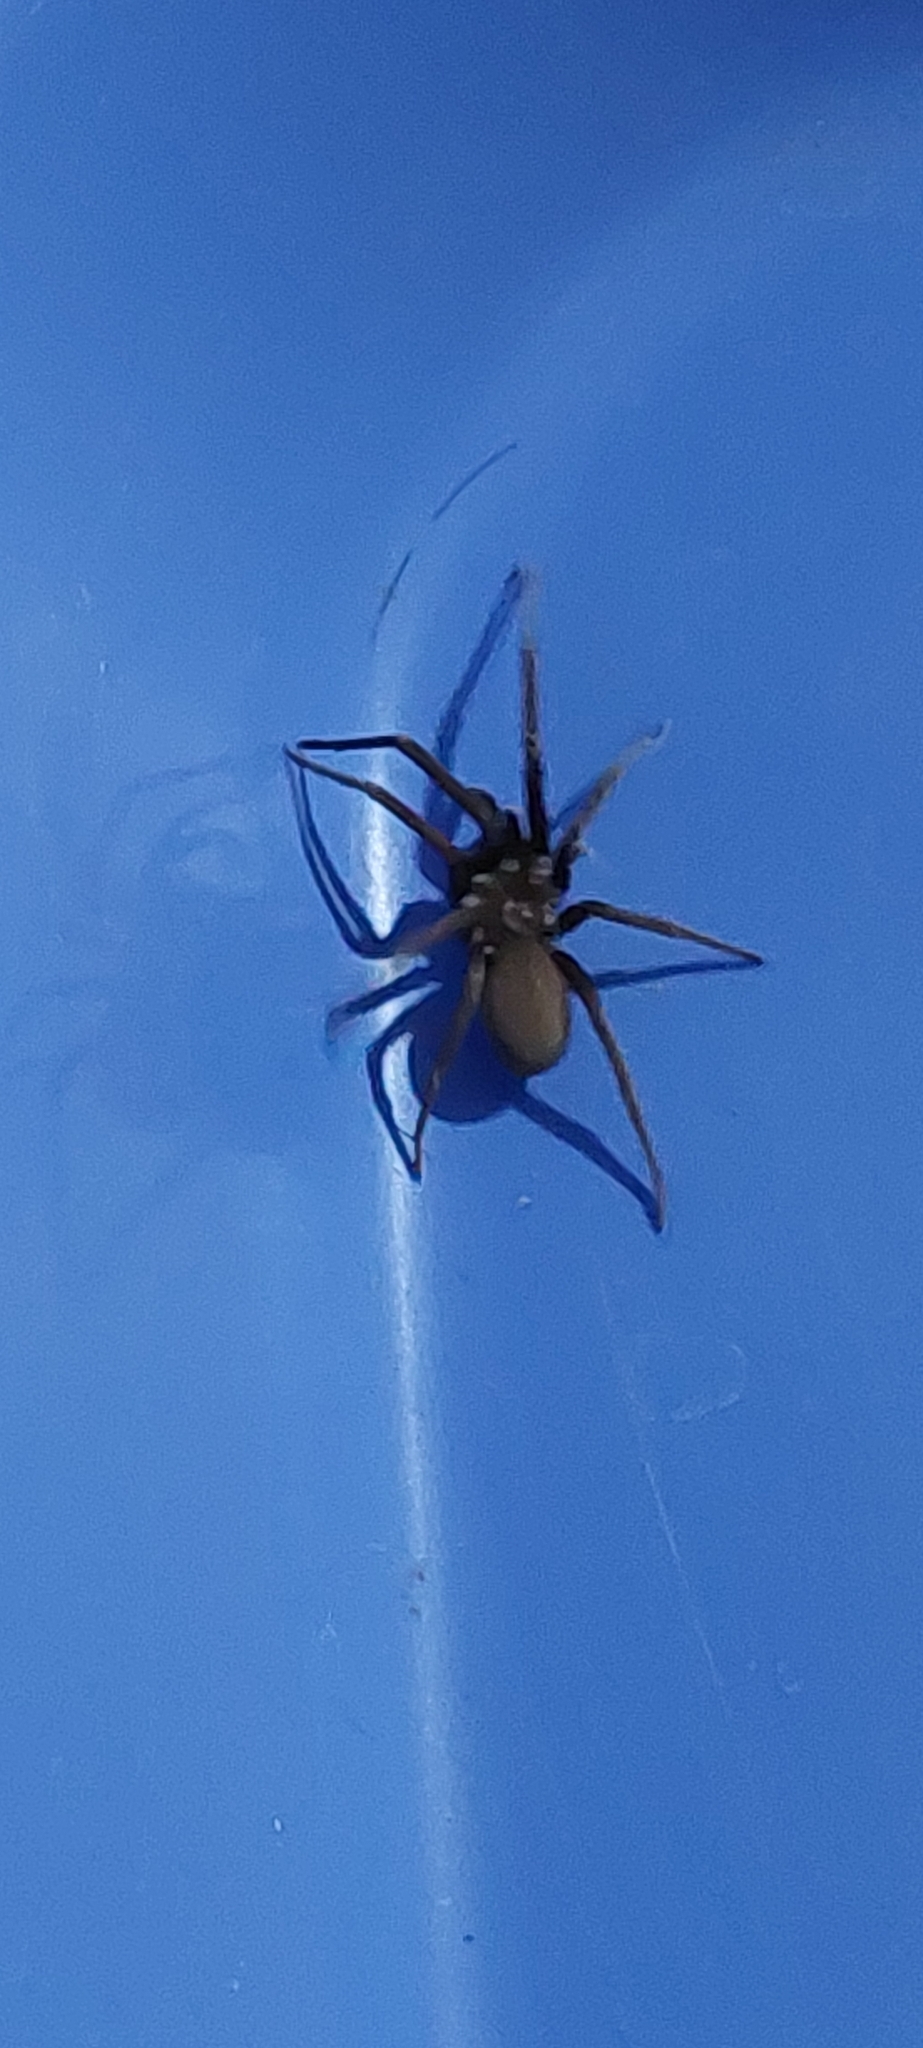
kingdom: Animalia
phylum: Arthropoda
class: Arachnida
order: Araneae
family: Filistatidae
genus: Kukulcania
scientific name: Kukulcania hibernalis
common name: Crevice weaver
